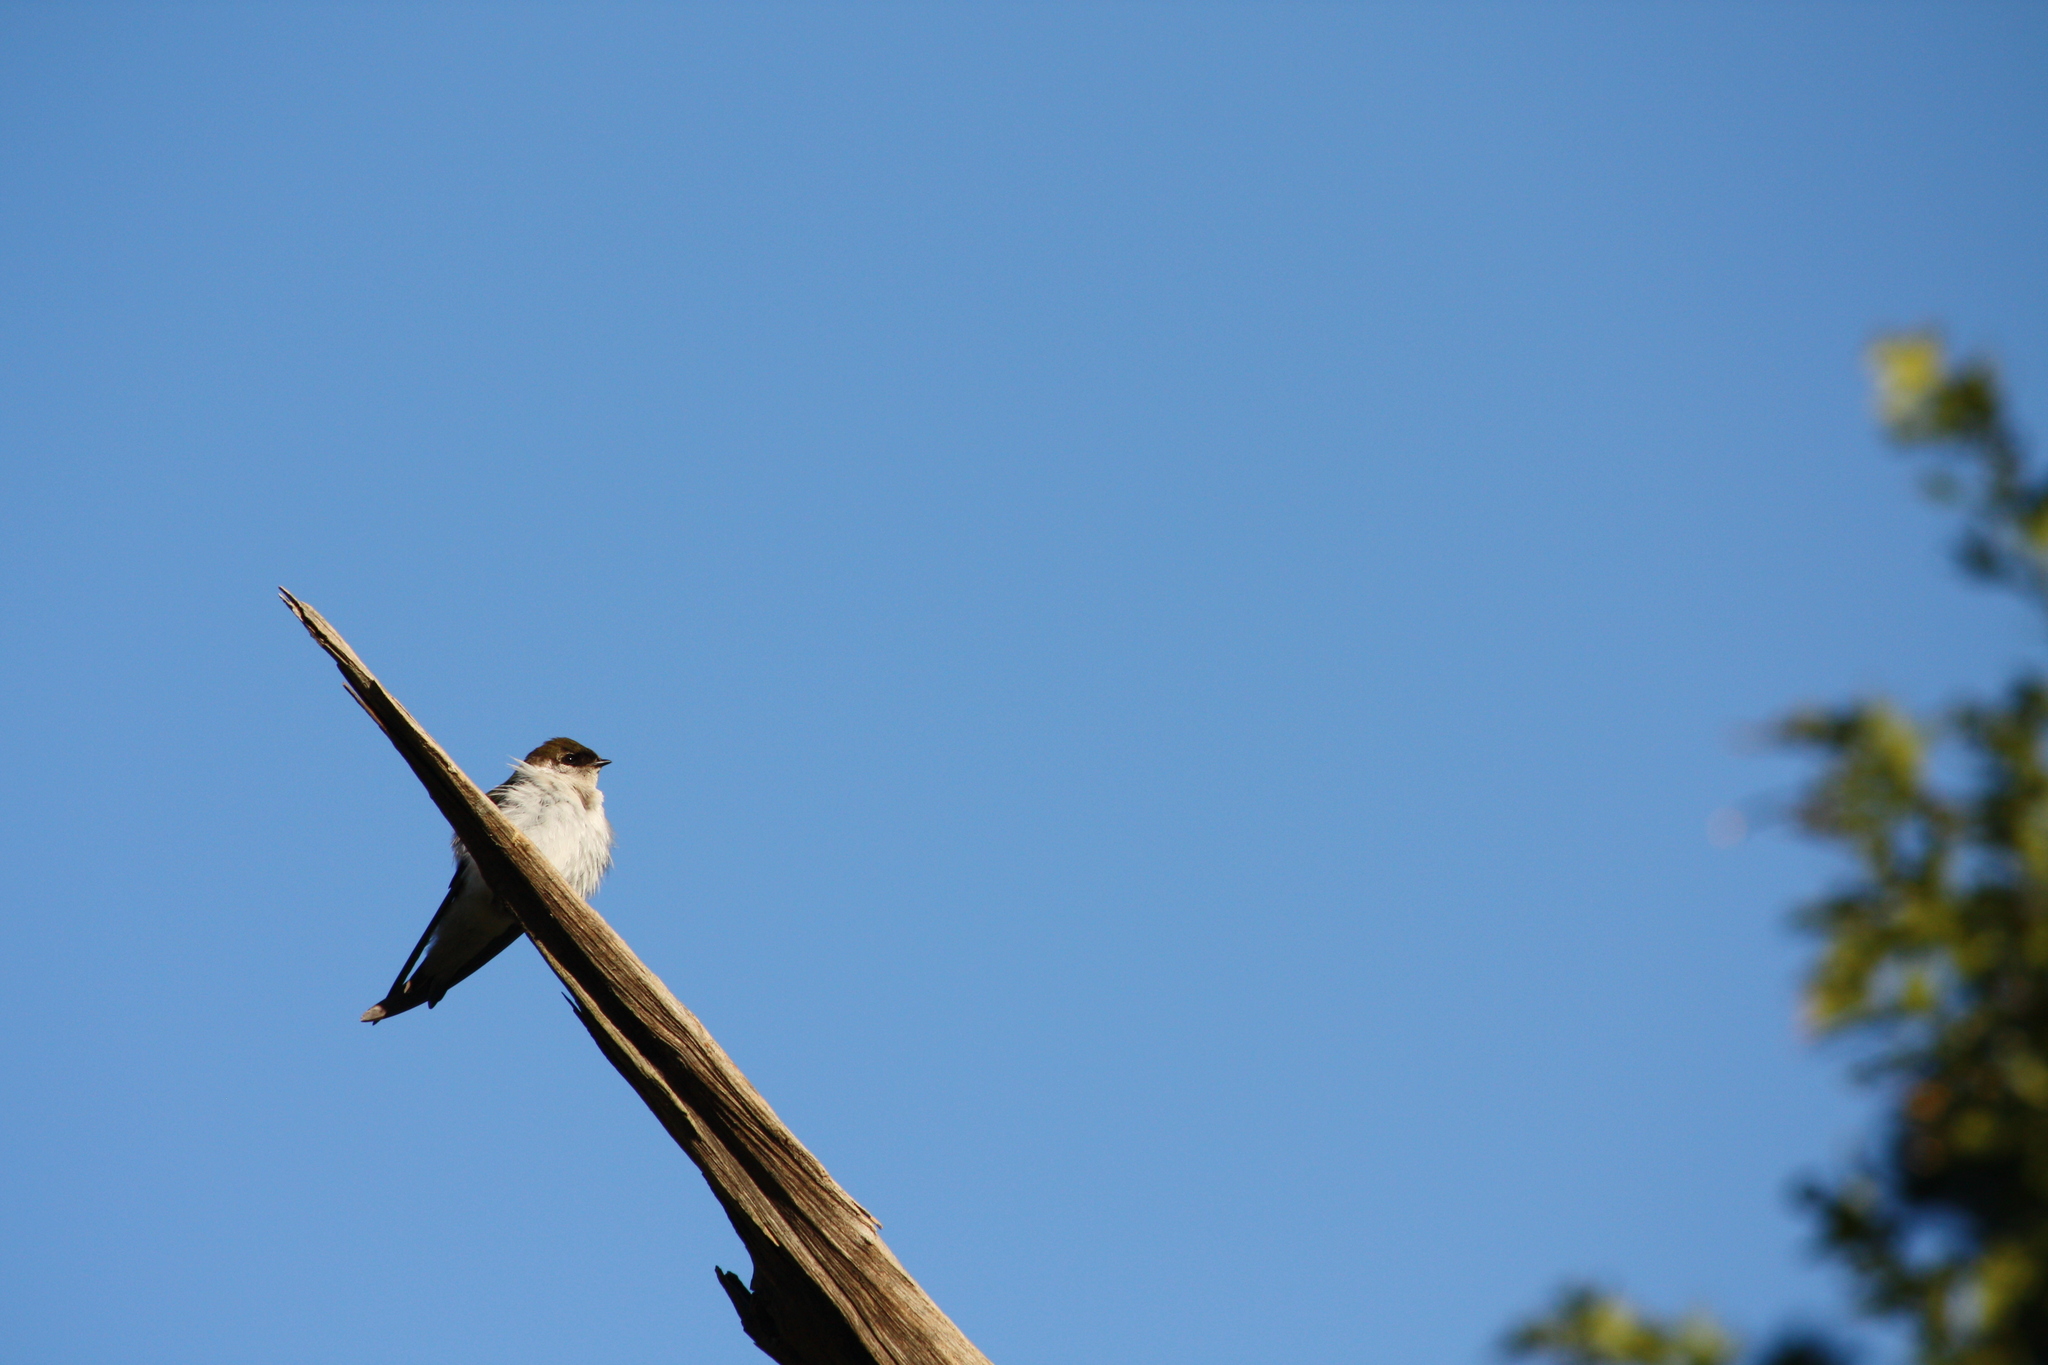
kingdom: Animalia
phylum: Chordata
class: Aves
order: Passeriformes
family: Hirundinidae
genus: Tachycineta
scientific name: Tachycineta thalassina
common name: Violet-green swallow
